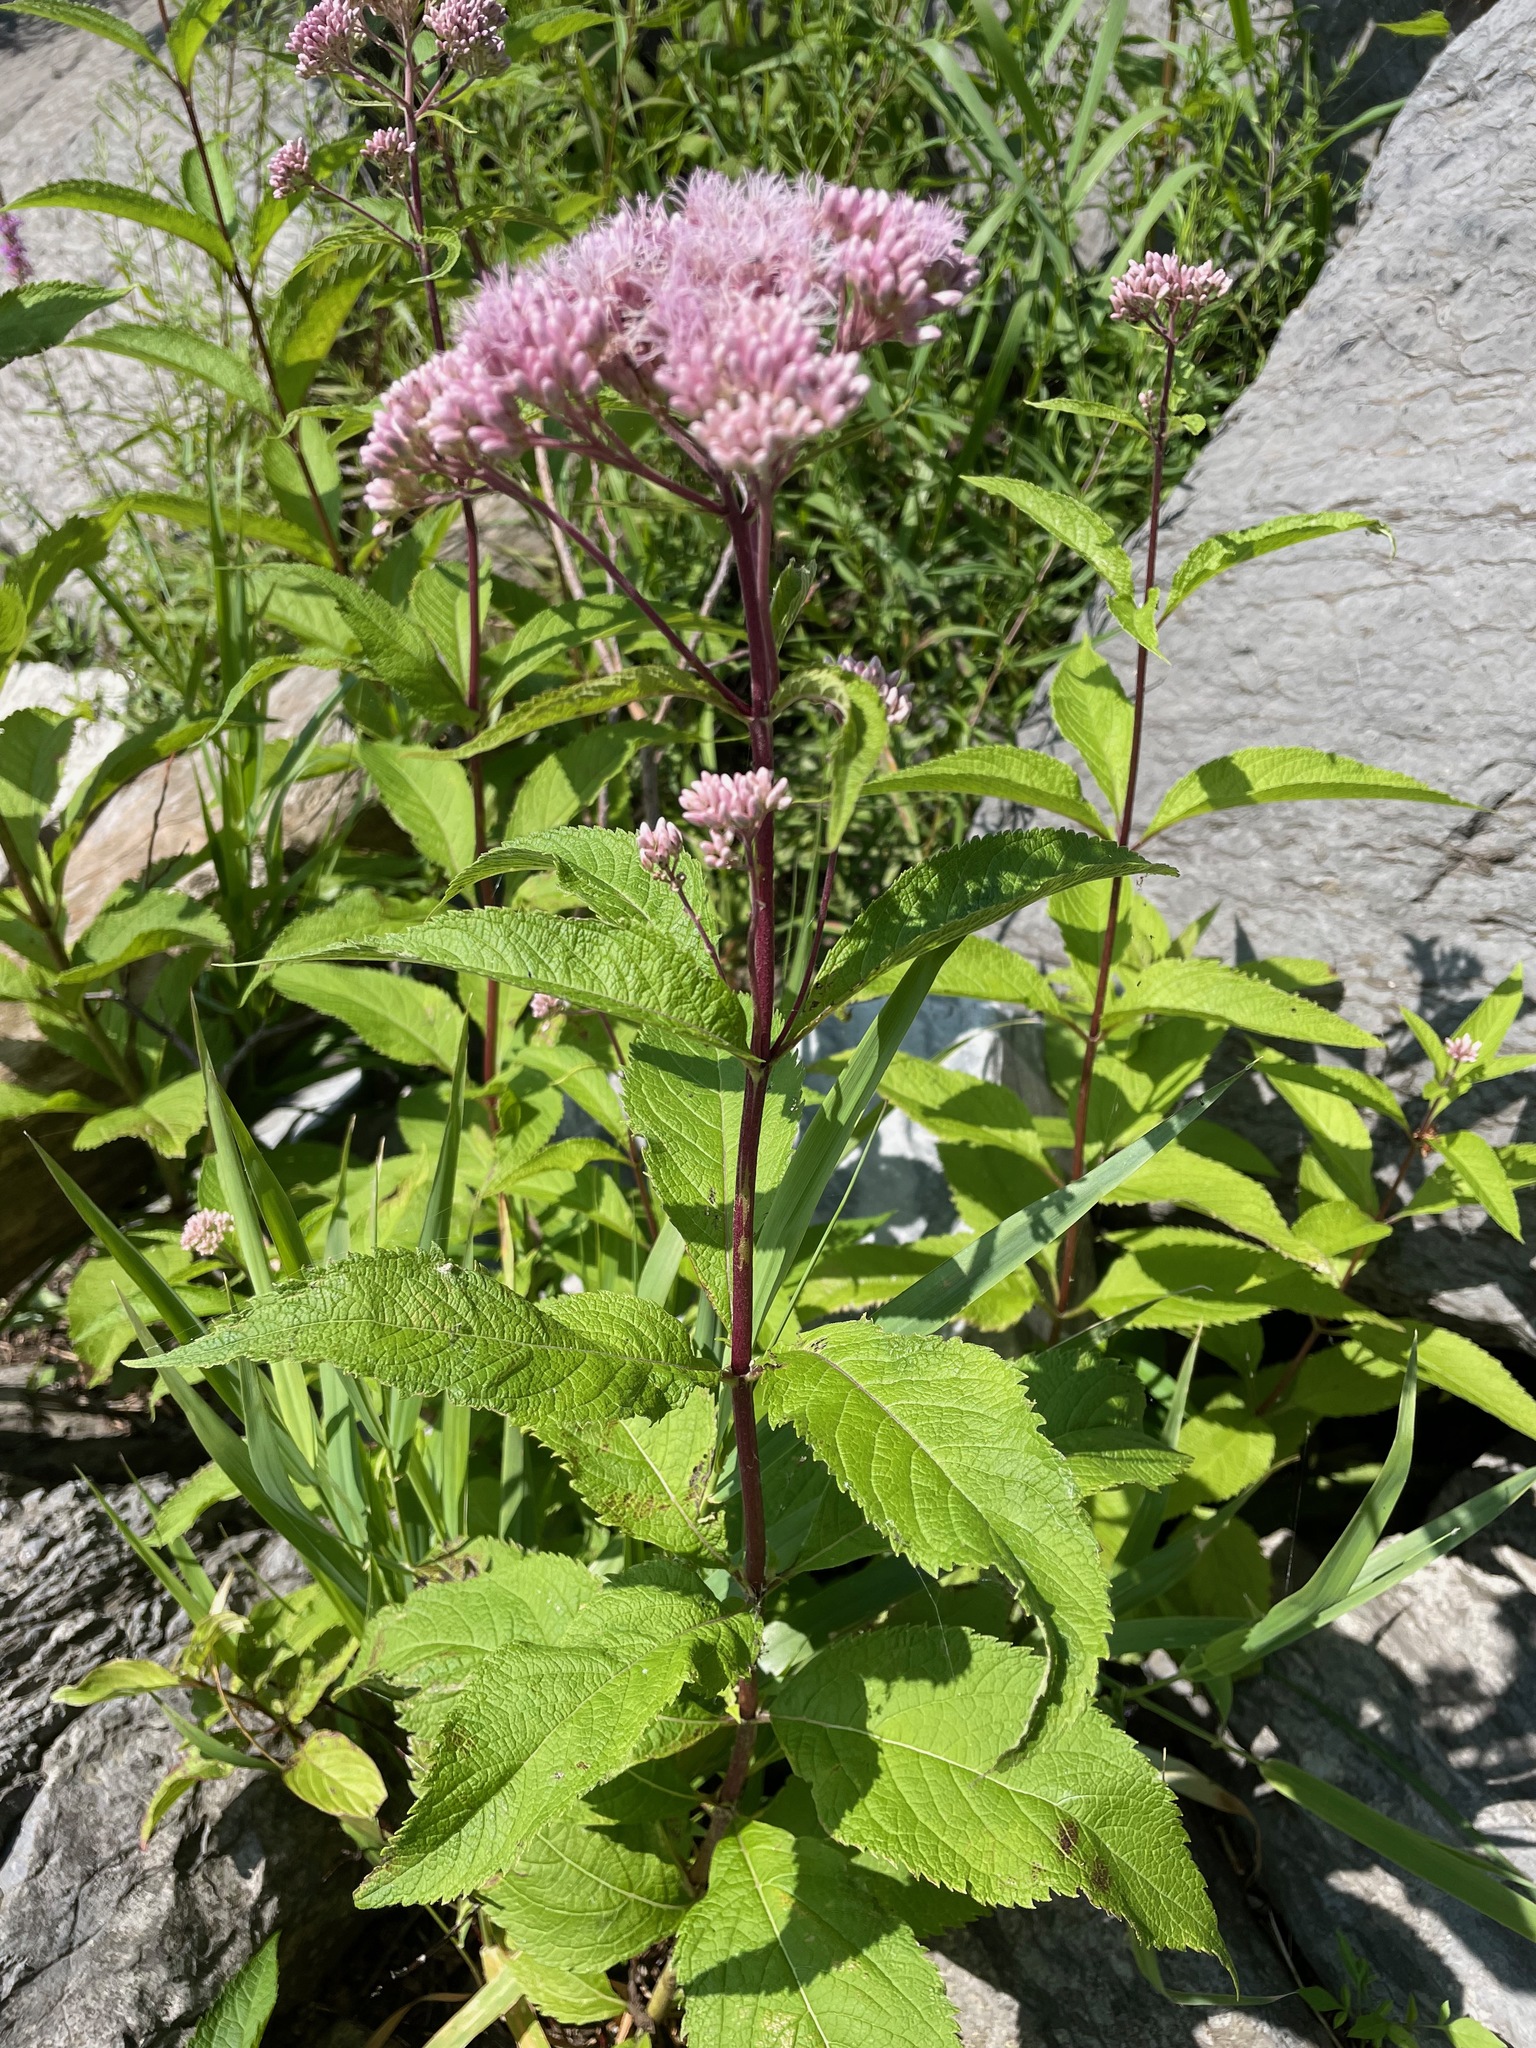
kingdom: Plantae
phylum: Tracheophyta
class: Magnoliopsida
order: Asterales
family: Asteraceae
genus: Eutrochium
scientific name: Eutrochium maculatum
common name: Spotted joe pye weed
